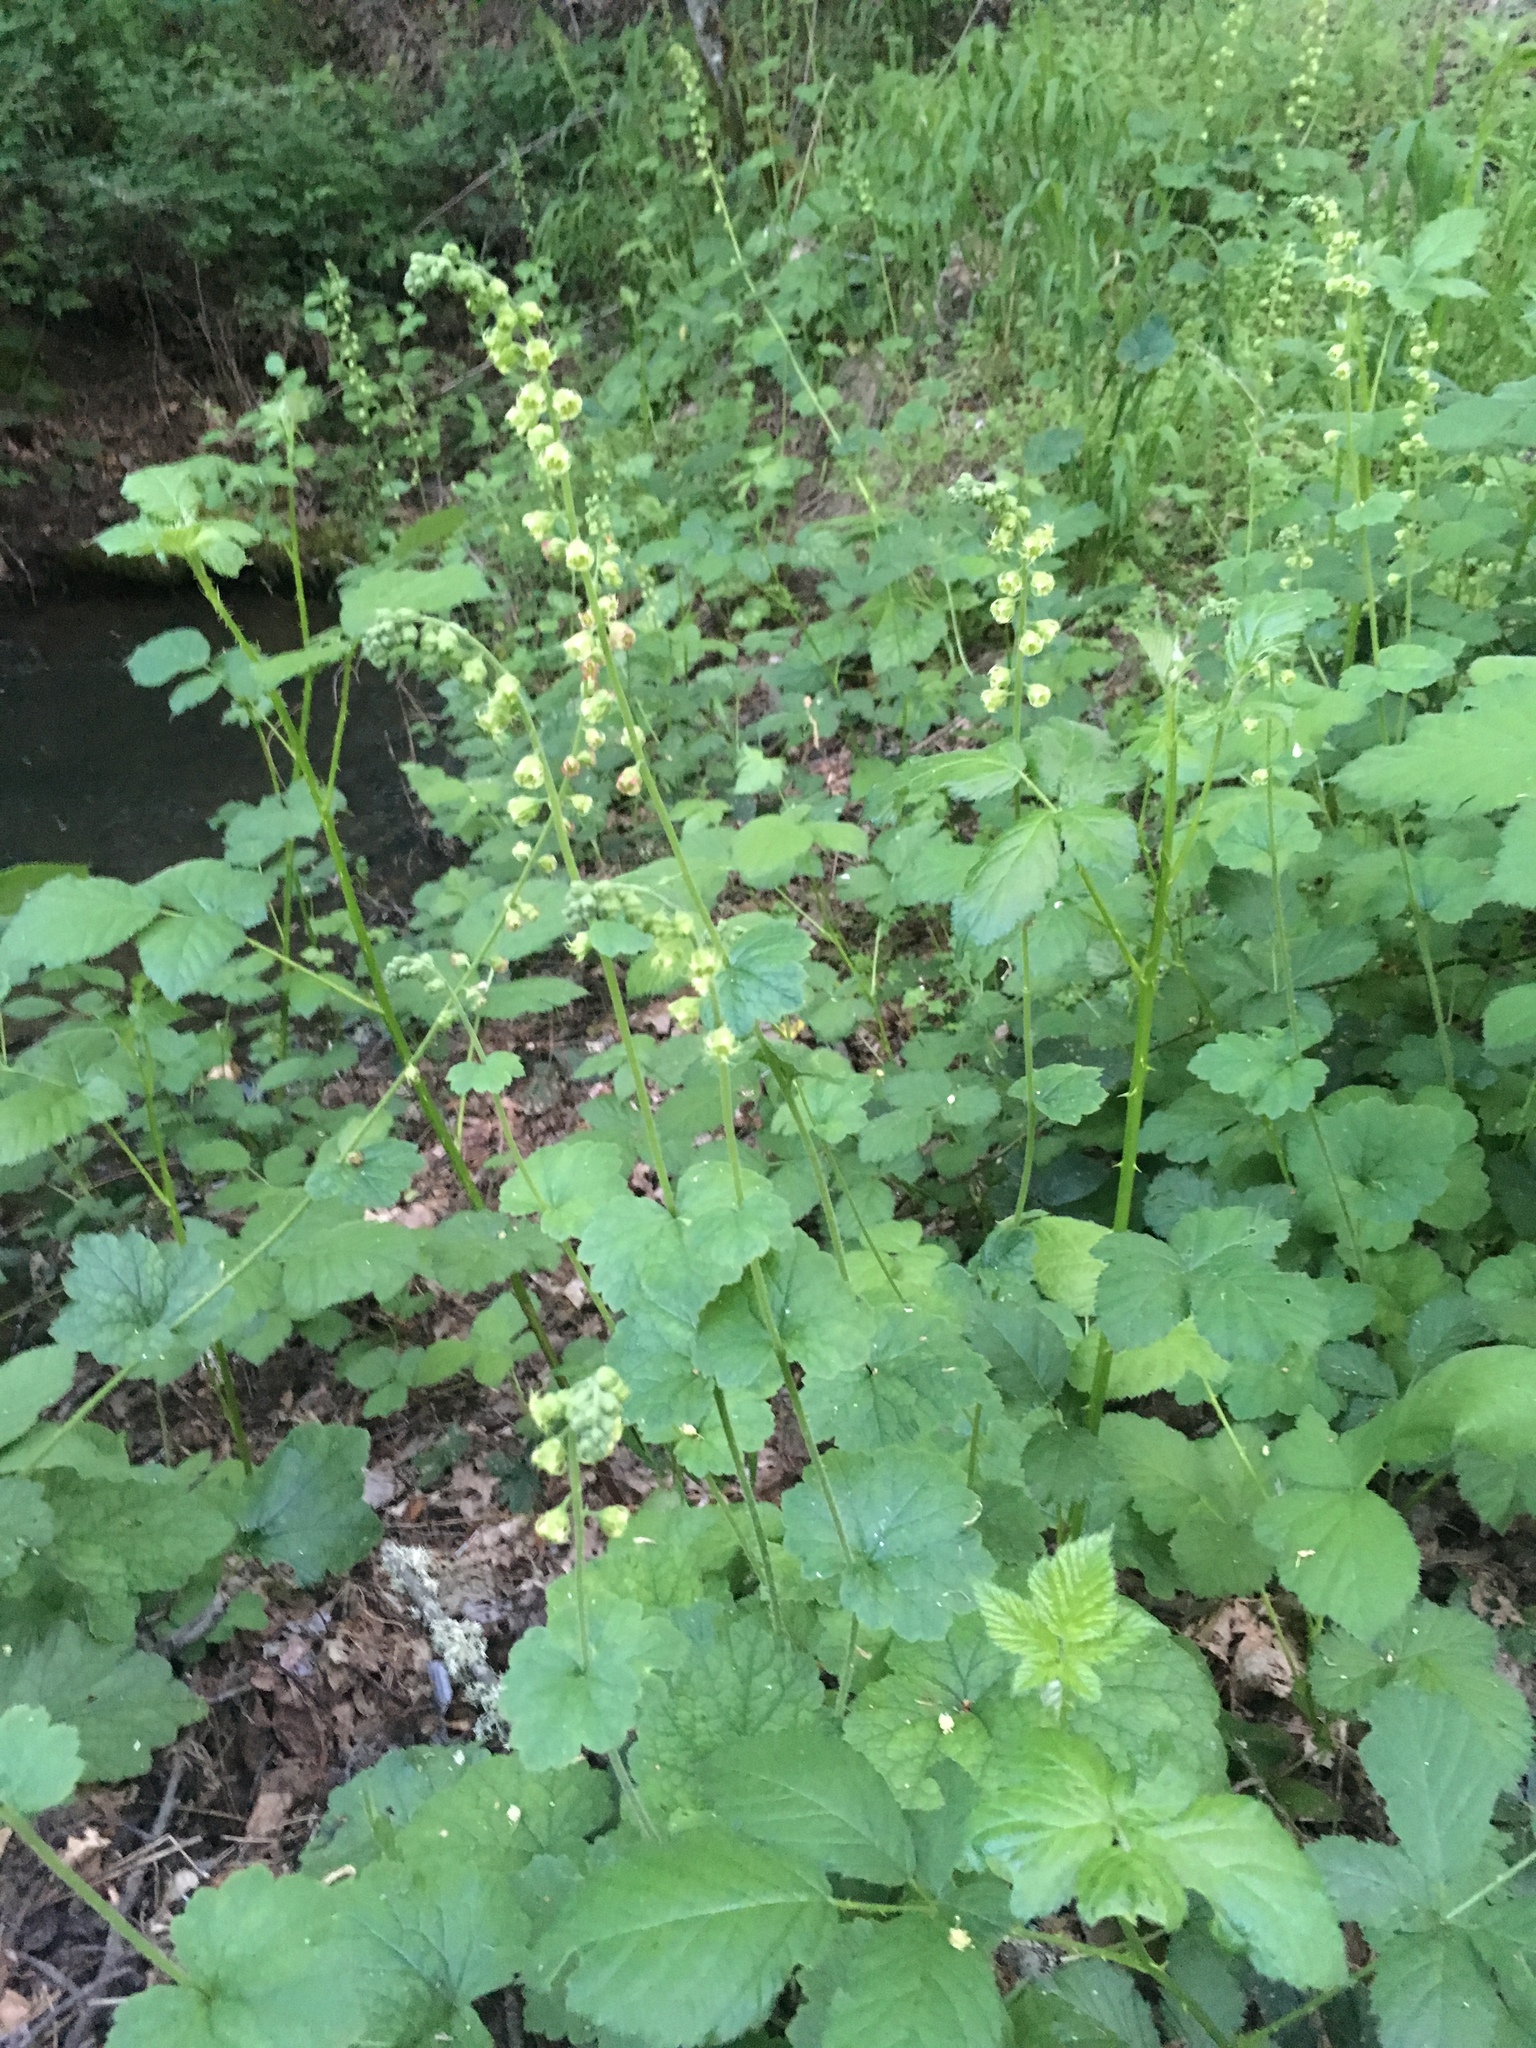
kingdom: Plantae
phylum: Tracheophyta
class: Magnoliopsida
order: Saxifragales
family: Saxifragaceae
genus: Tellima
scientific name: Tellima grandiflora
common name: Fringecups
